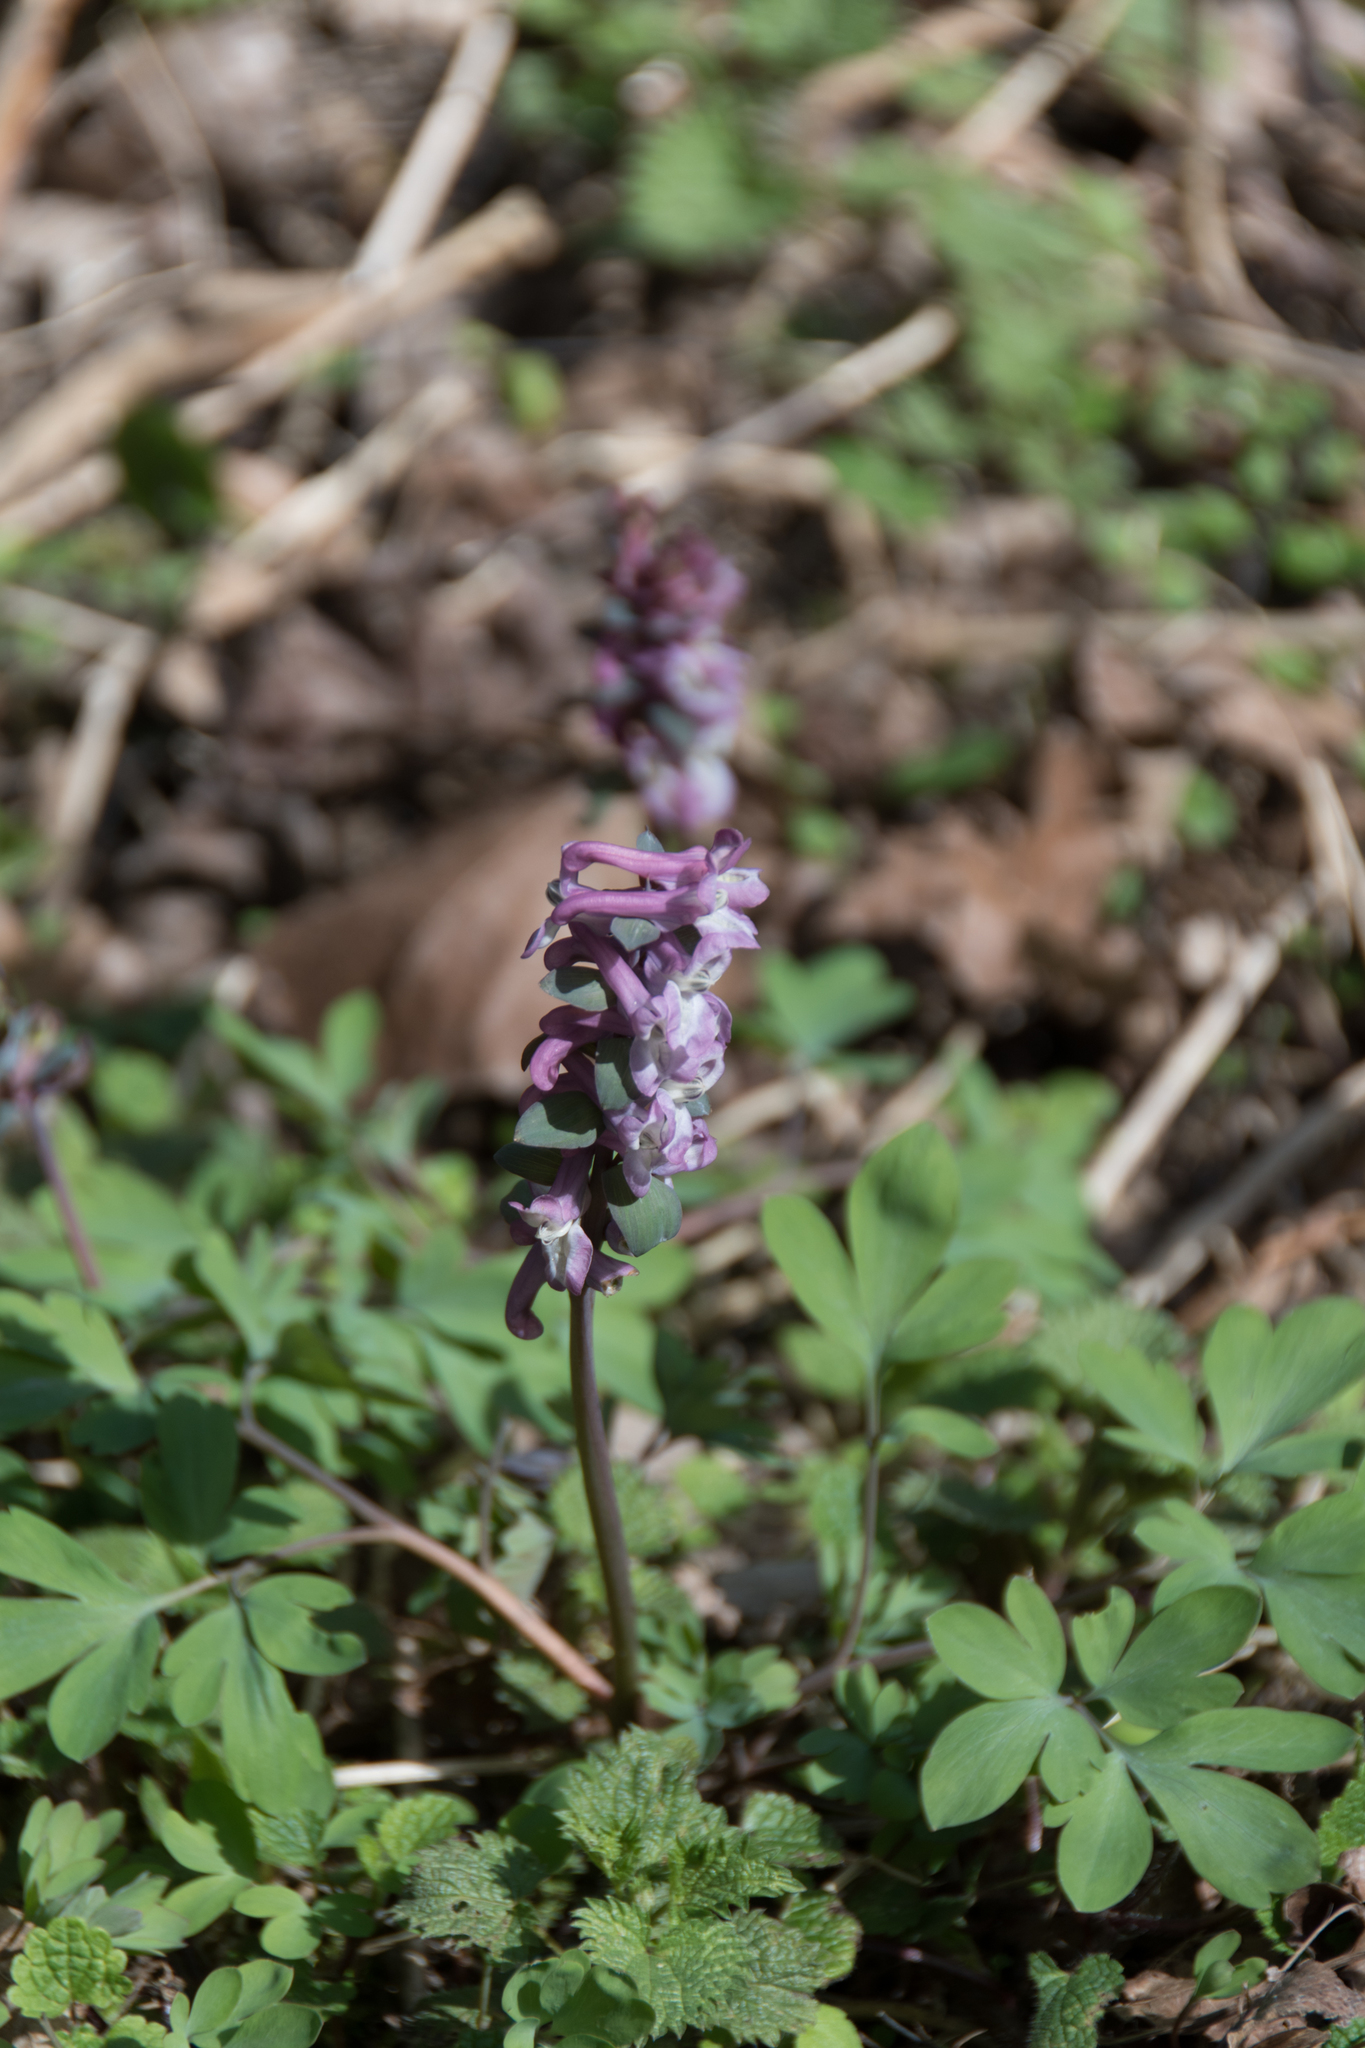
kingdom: Plantae
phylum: Tracheophyta
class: Magnoliopsida
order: Ranunculales
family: Papaveraceae
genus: Corydalis
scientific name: Corydalis cava
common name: Hollowroot
